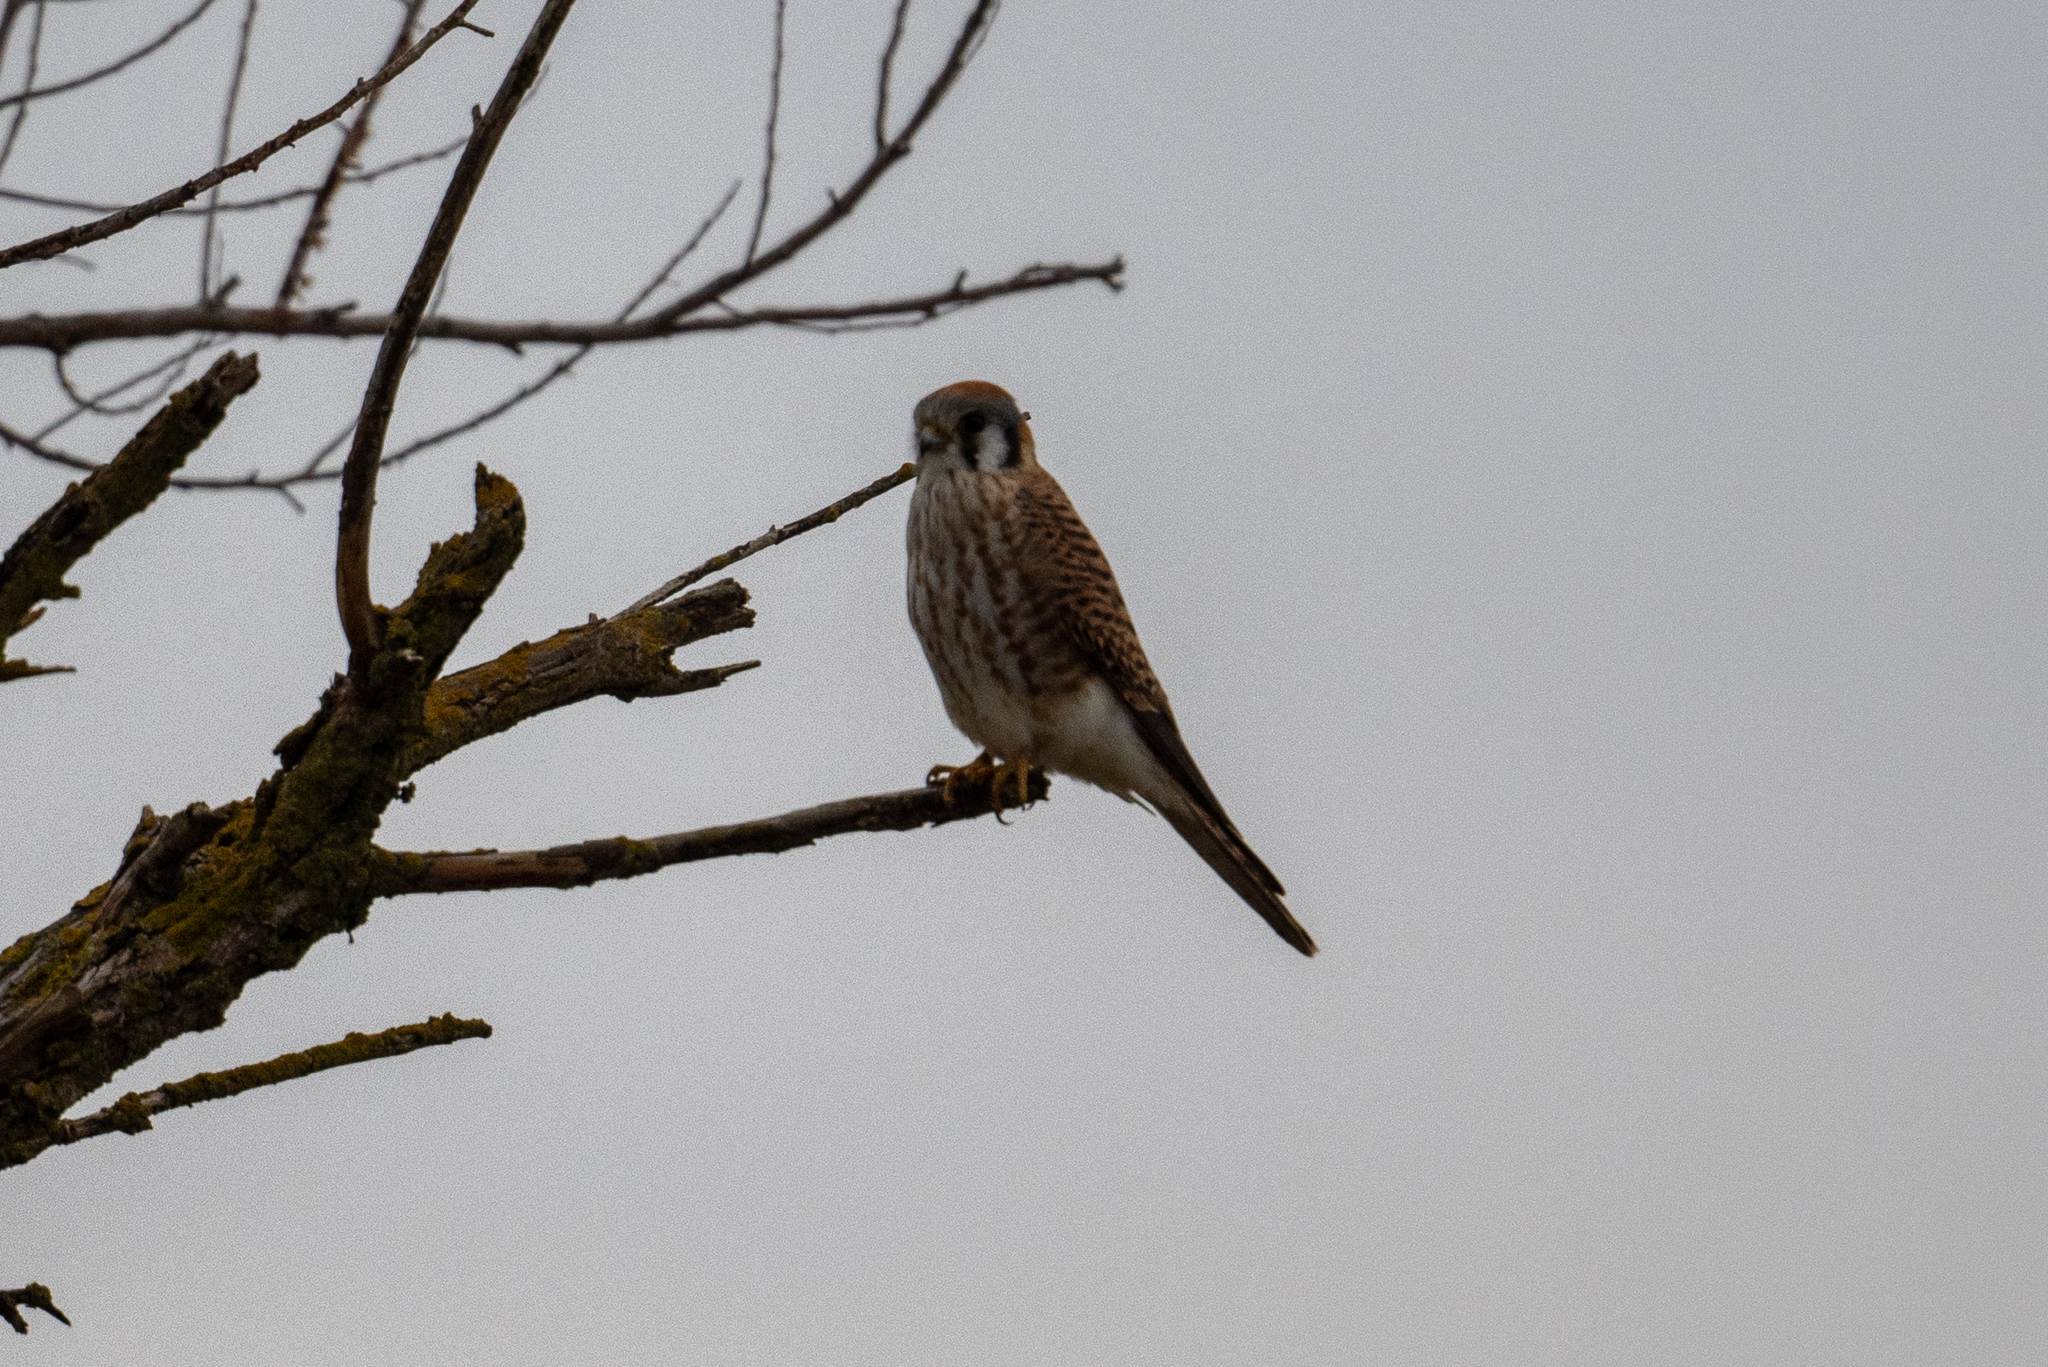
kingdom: Animalia
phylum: Chordata
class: Aves
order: Falconiformes
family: Falconidae
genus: Falco
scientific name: Falco sparverius
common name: American kestrel
